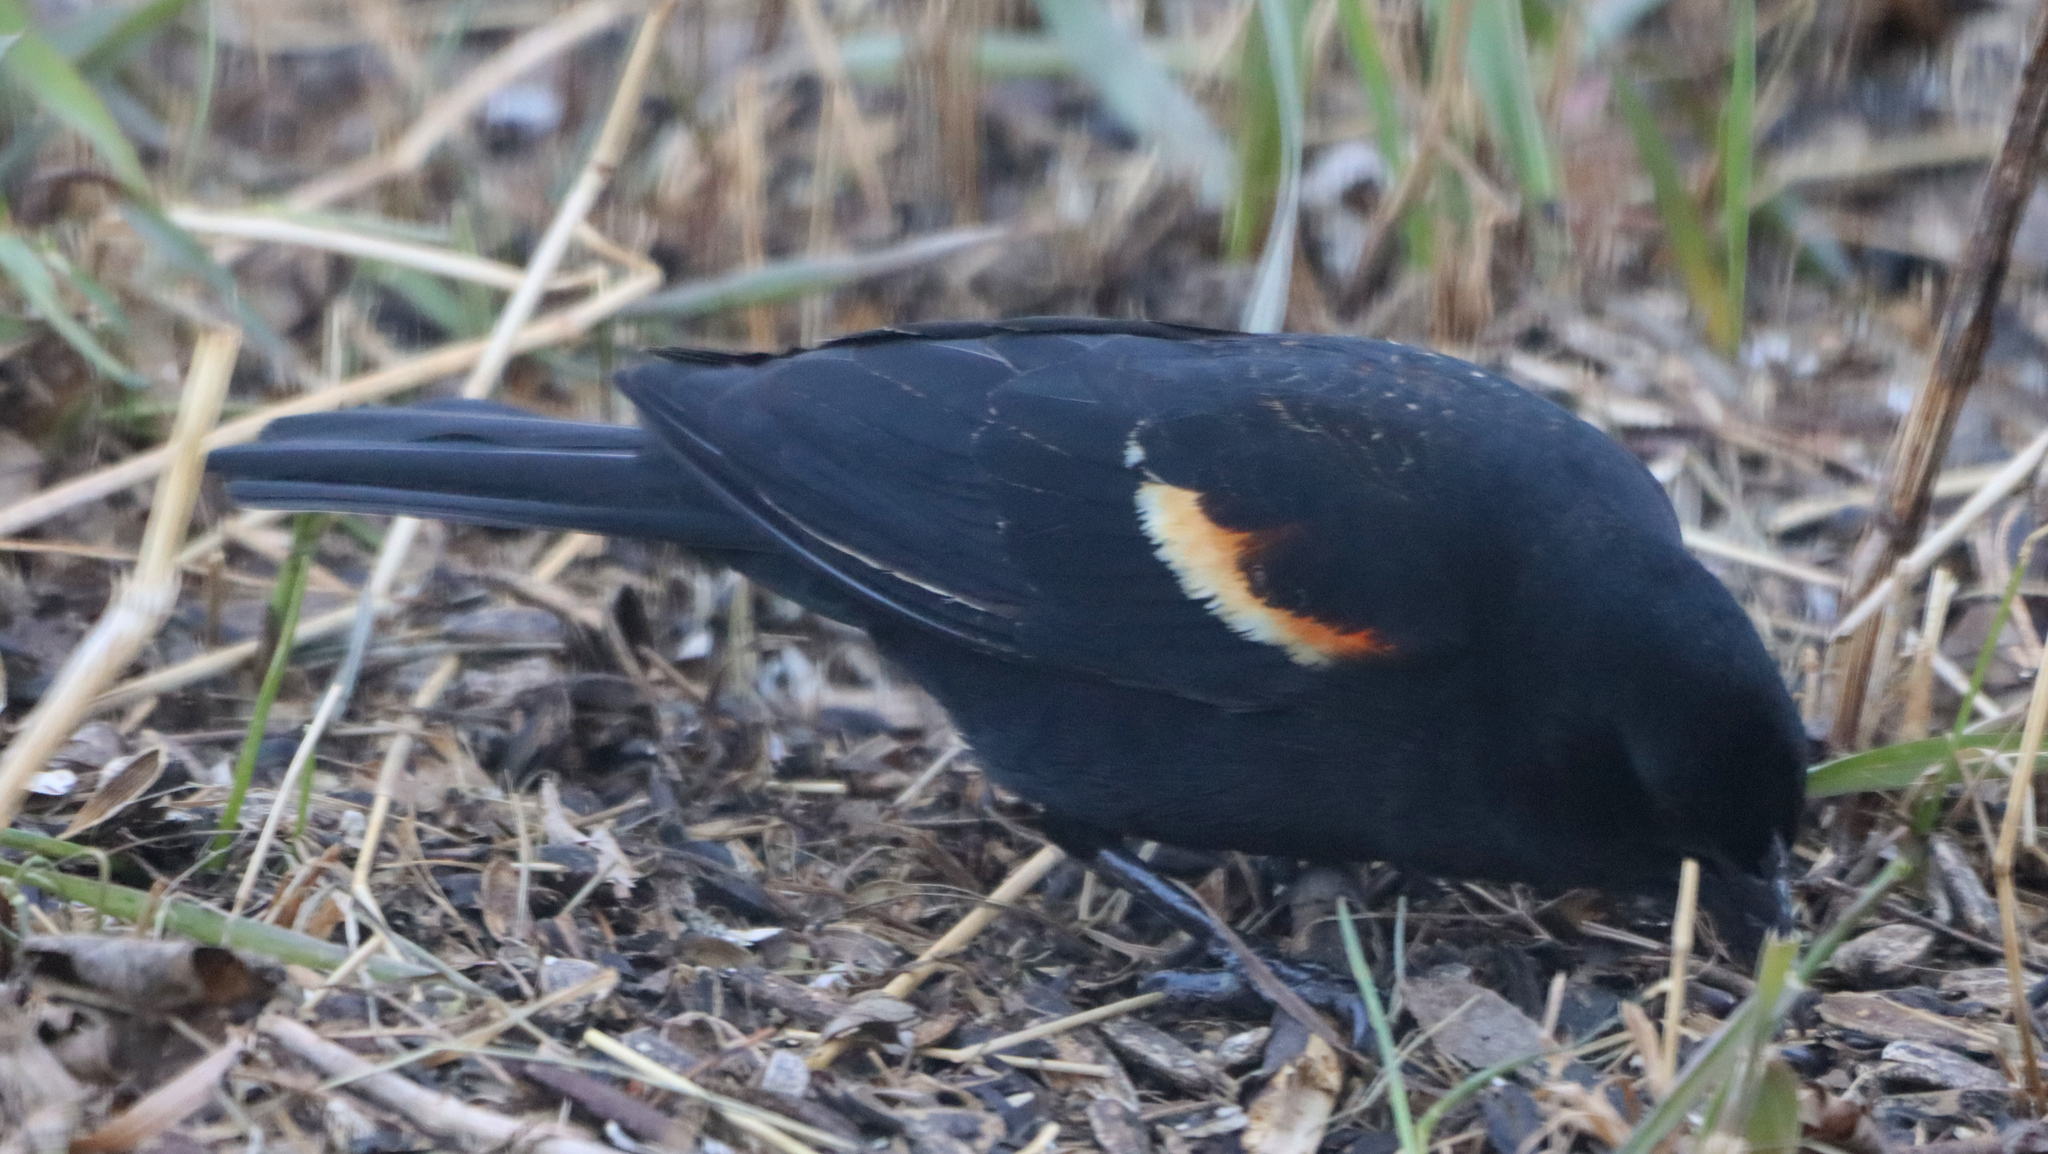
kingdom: Animalia
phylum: Chordata
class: Aves
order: Passeriformes
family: Icteridae
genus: Agelaius
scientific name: Agelaius phoeniceus
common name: Red-winged blackbird
